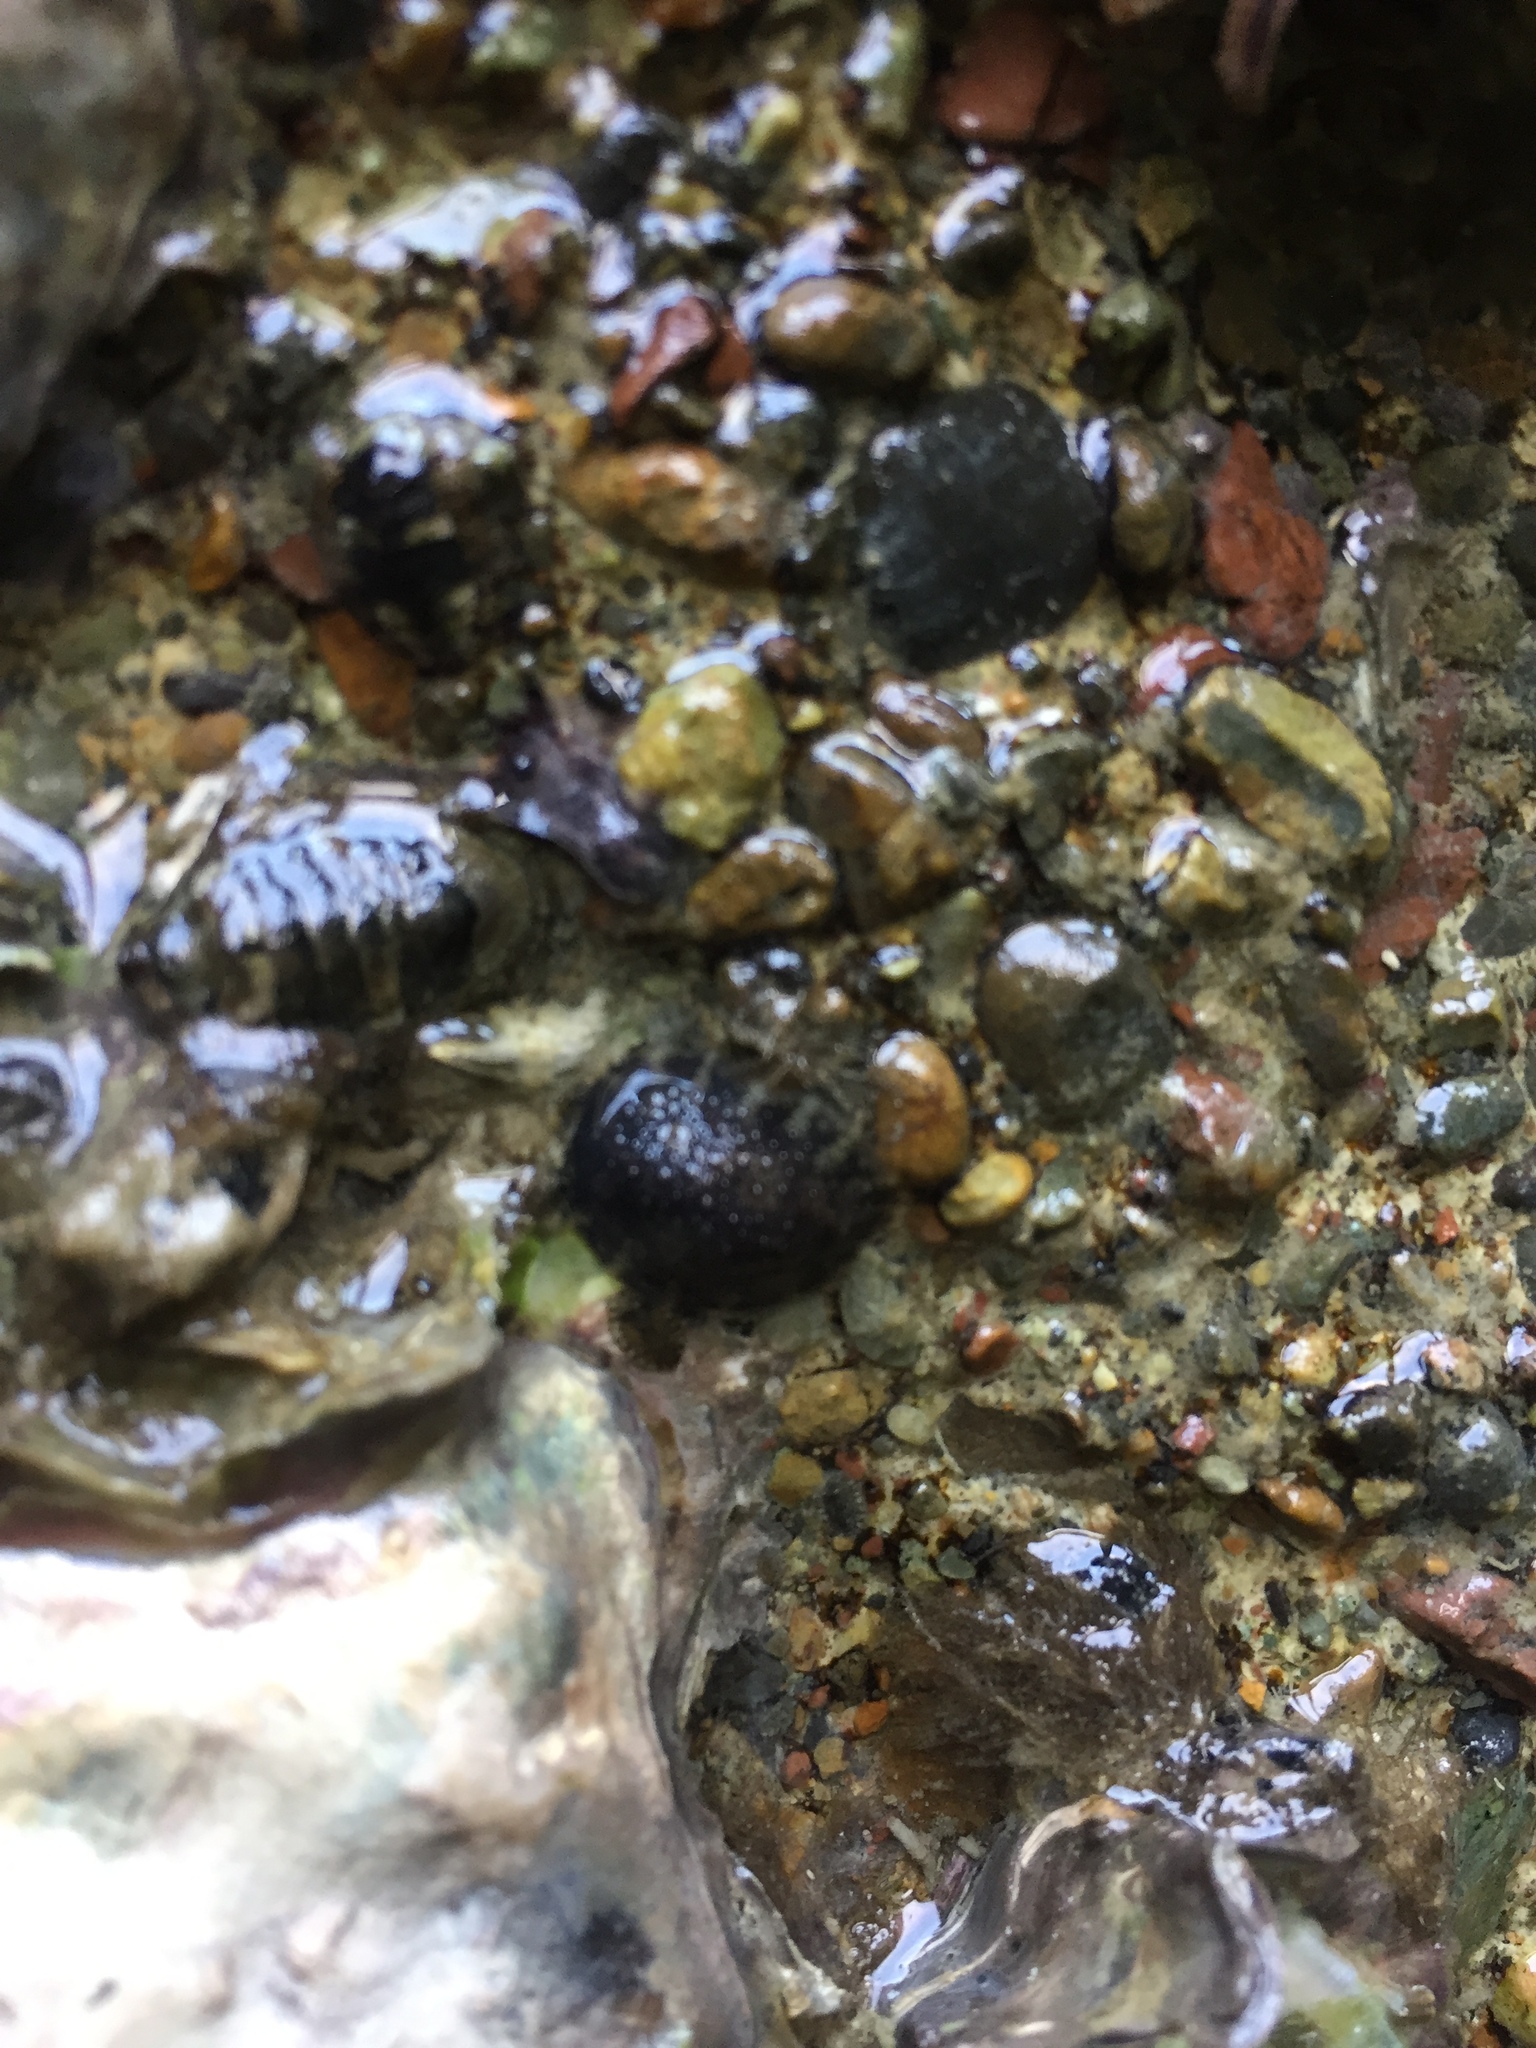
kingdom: Animalia
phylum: Mollusca
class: Gastropoda
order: Systellommatophora
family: Onchidiidae
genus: Onchidella
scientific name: Onchidella nigricans
